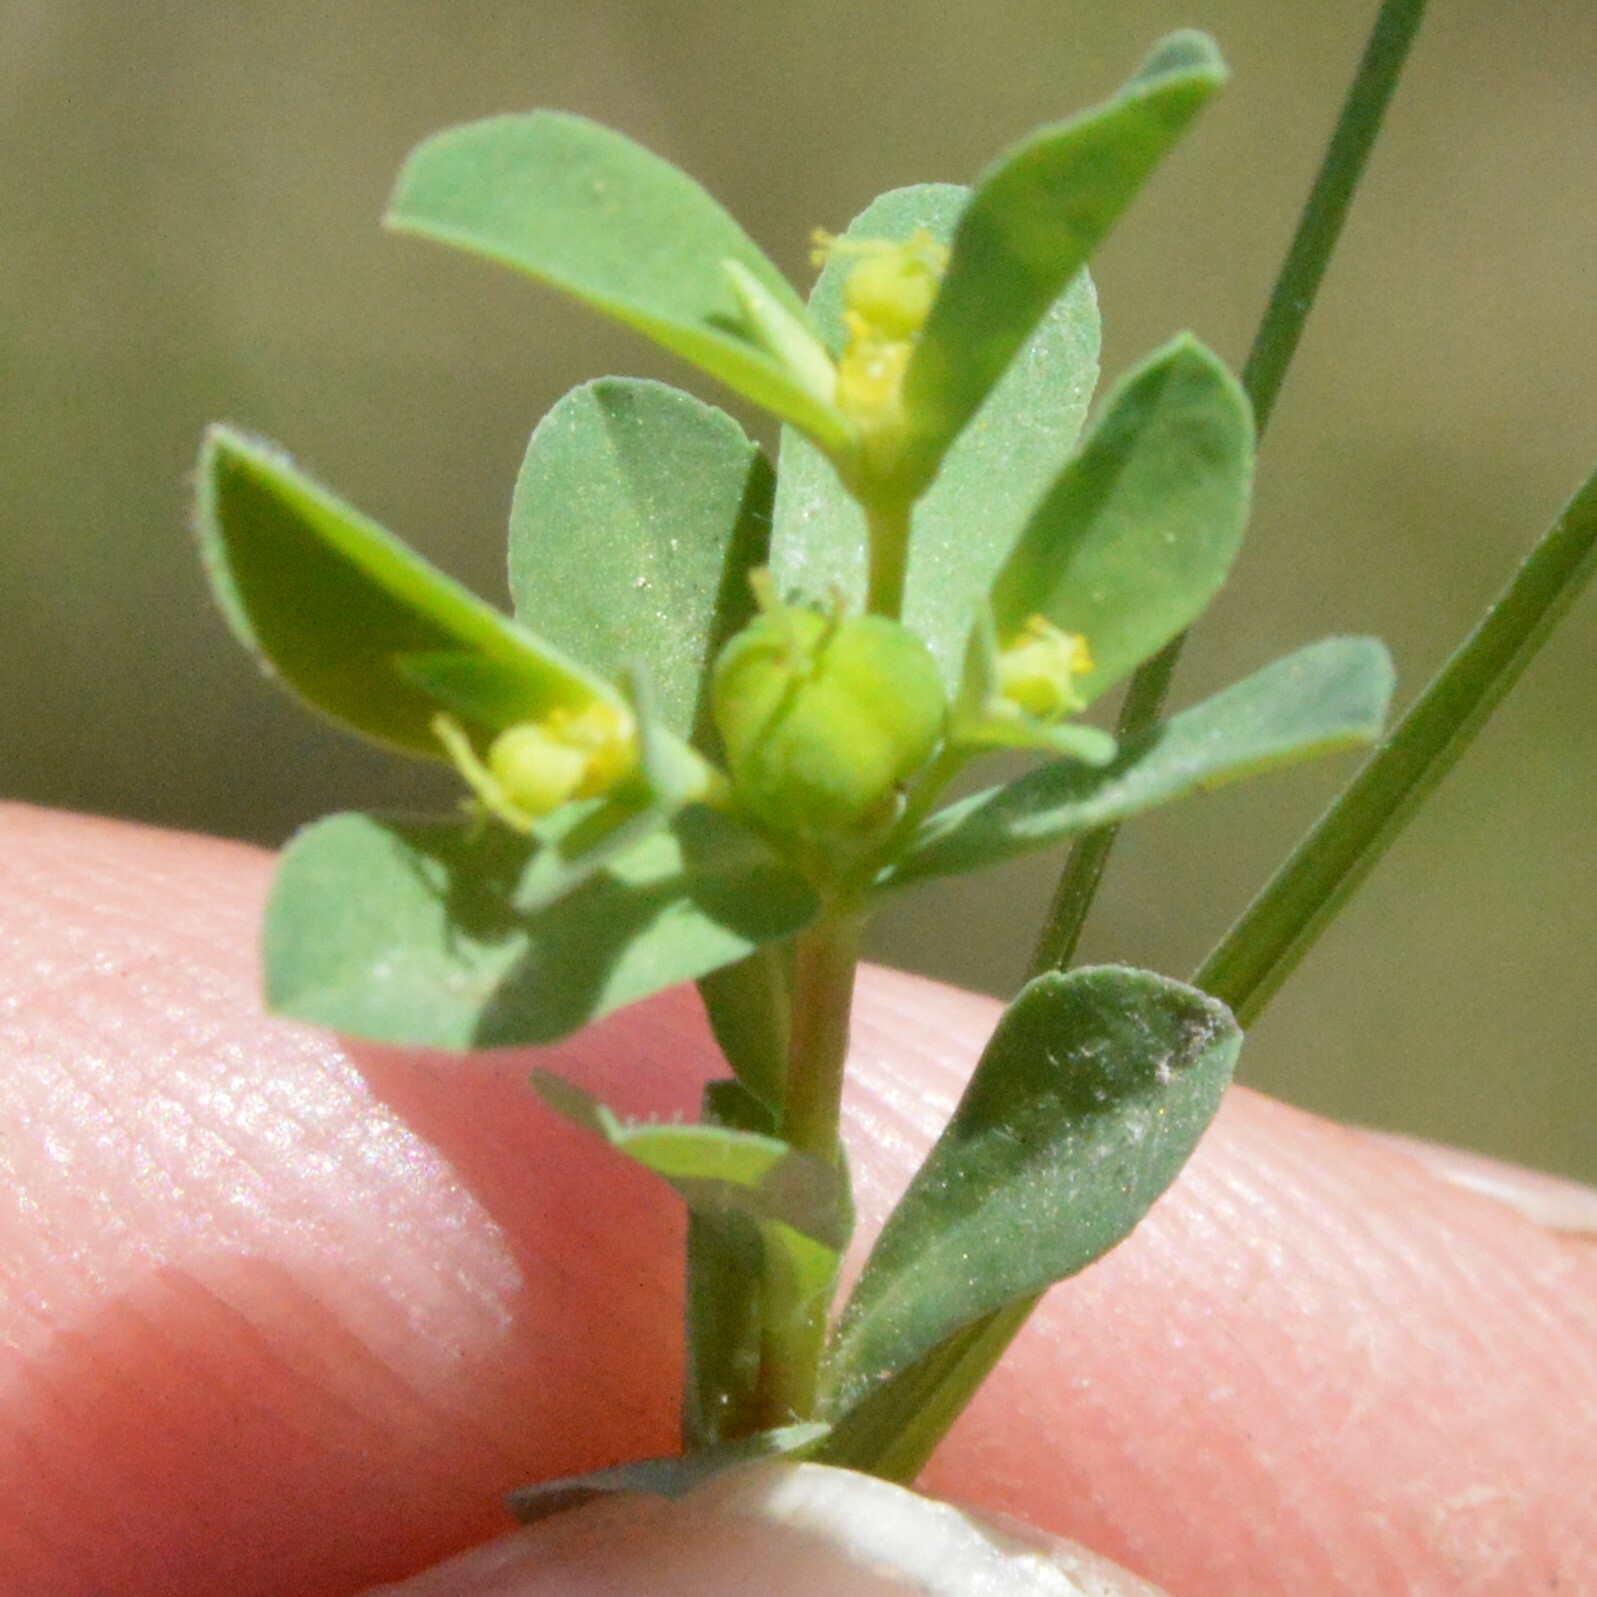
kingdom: Plantae
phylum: Tracheophyta
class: Magnoliopsida
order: Malpighiales
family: Euphorbiaceae
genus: Euphorbia
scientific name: Euphorbia texana
